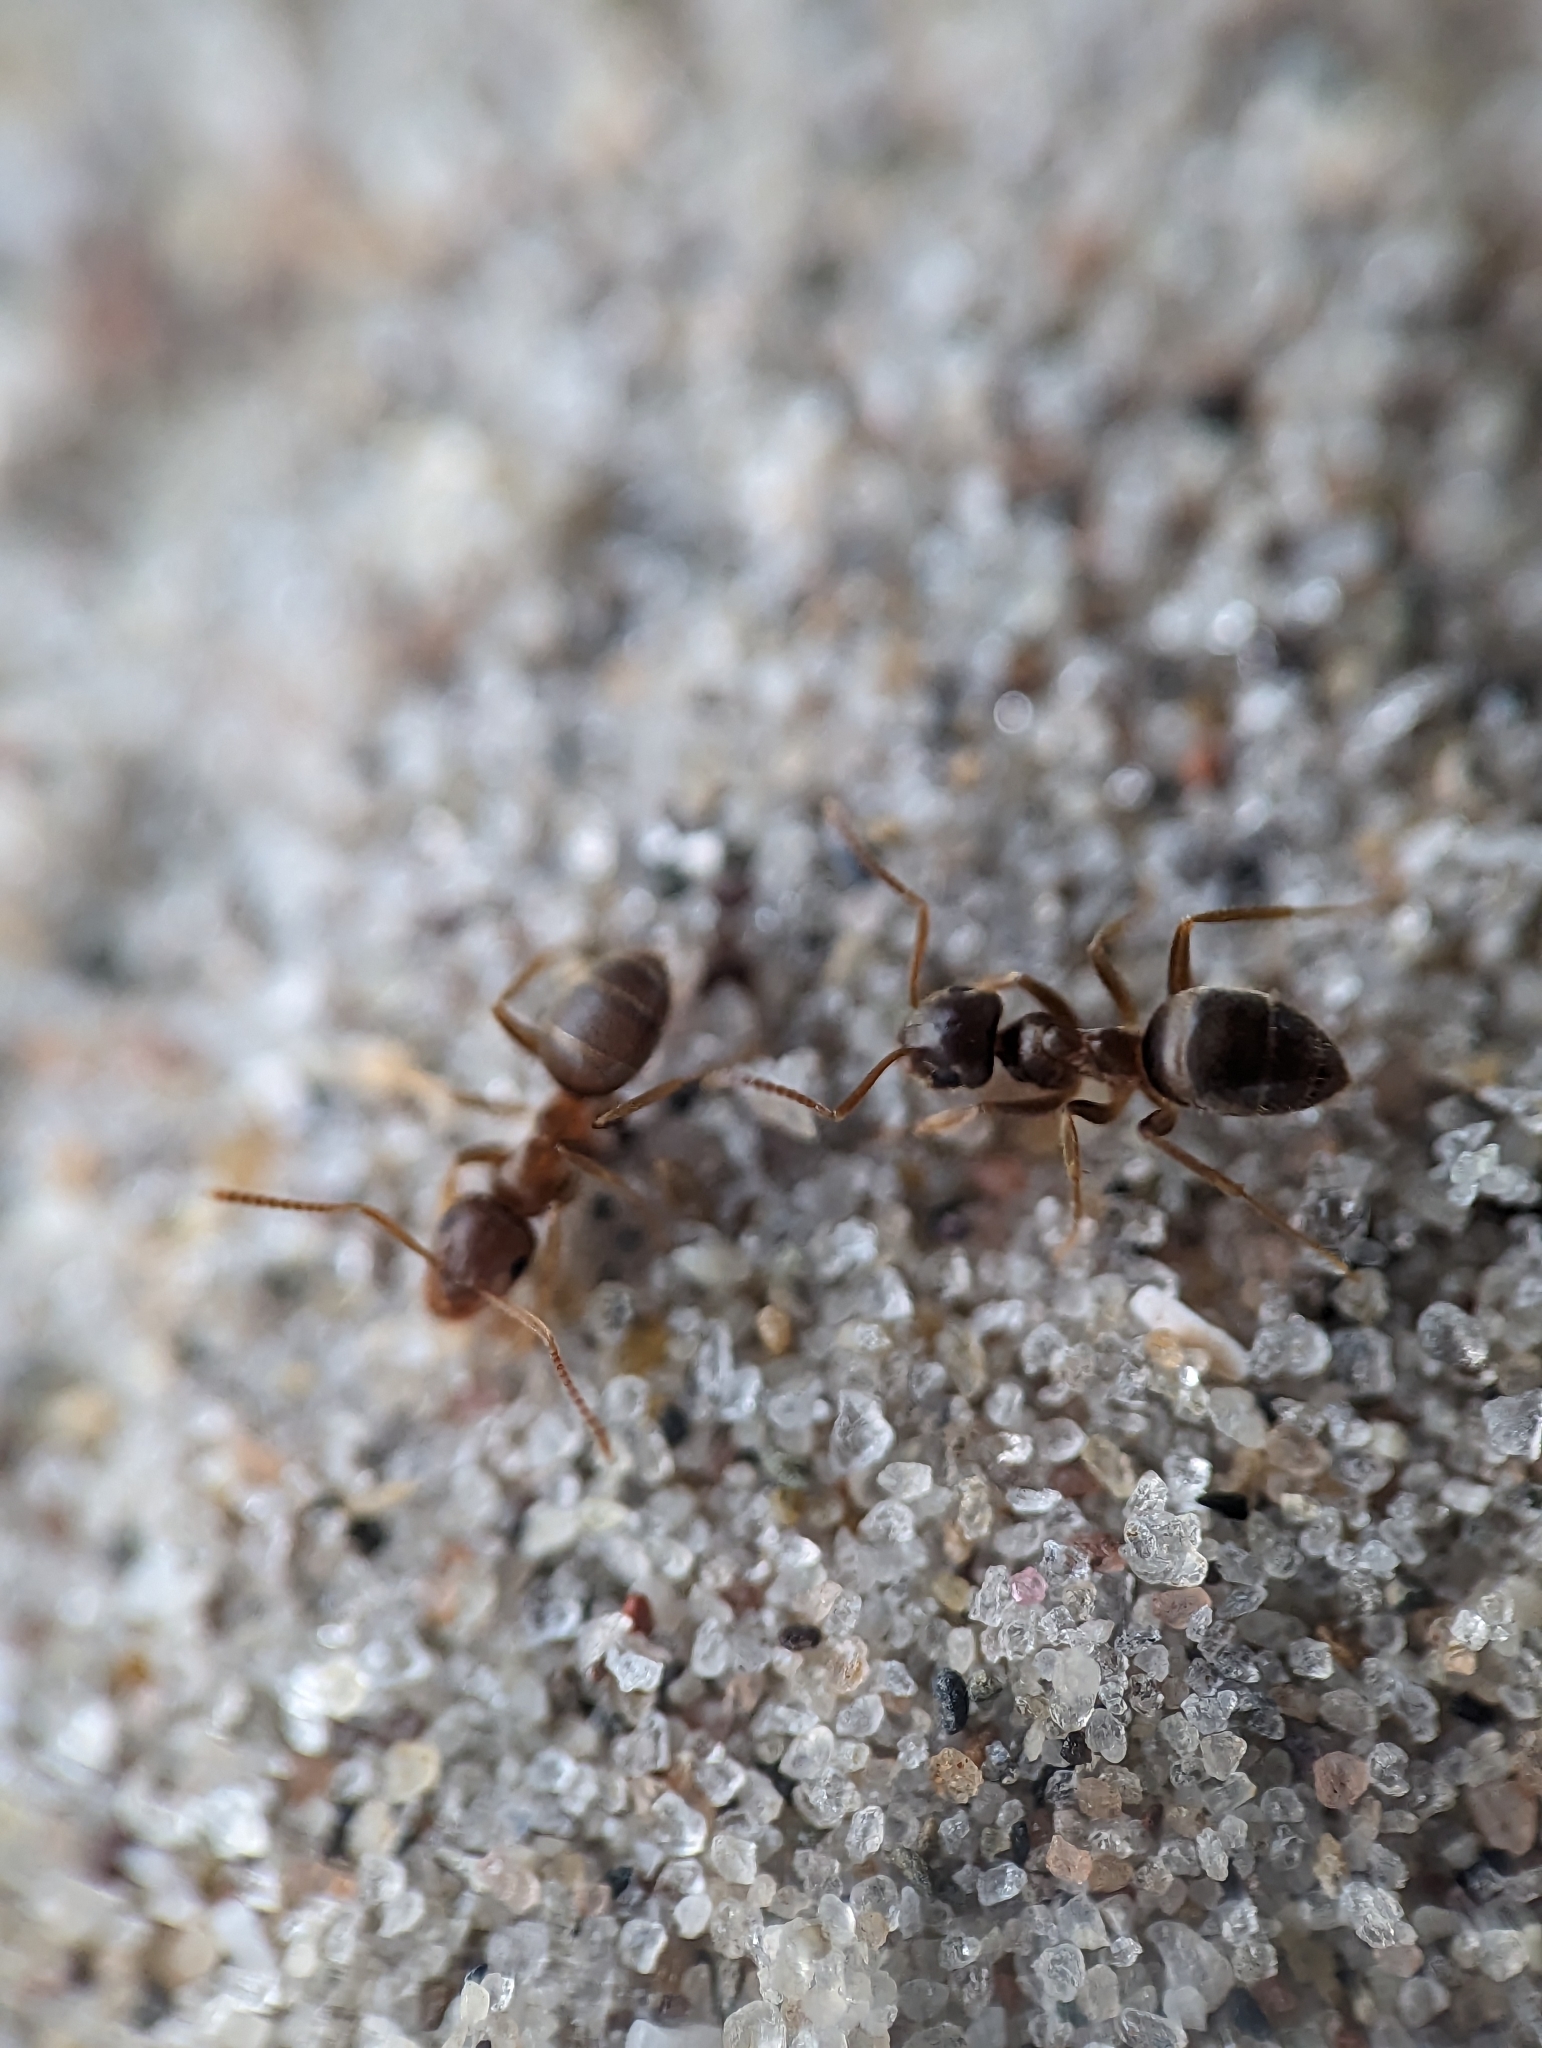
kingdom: Animalia
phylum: Arthropoda
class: Insecta
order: Hymenoptera
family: Formicidae
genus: Lasius
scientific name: Lasius neoniger
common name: Turfgrass ant
